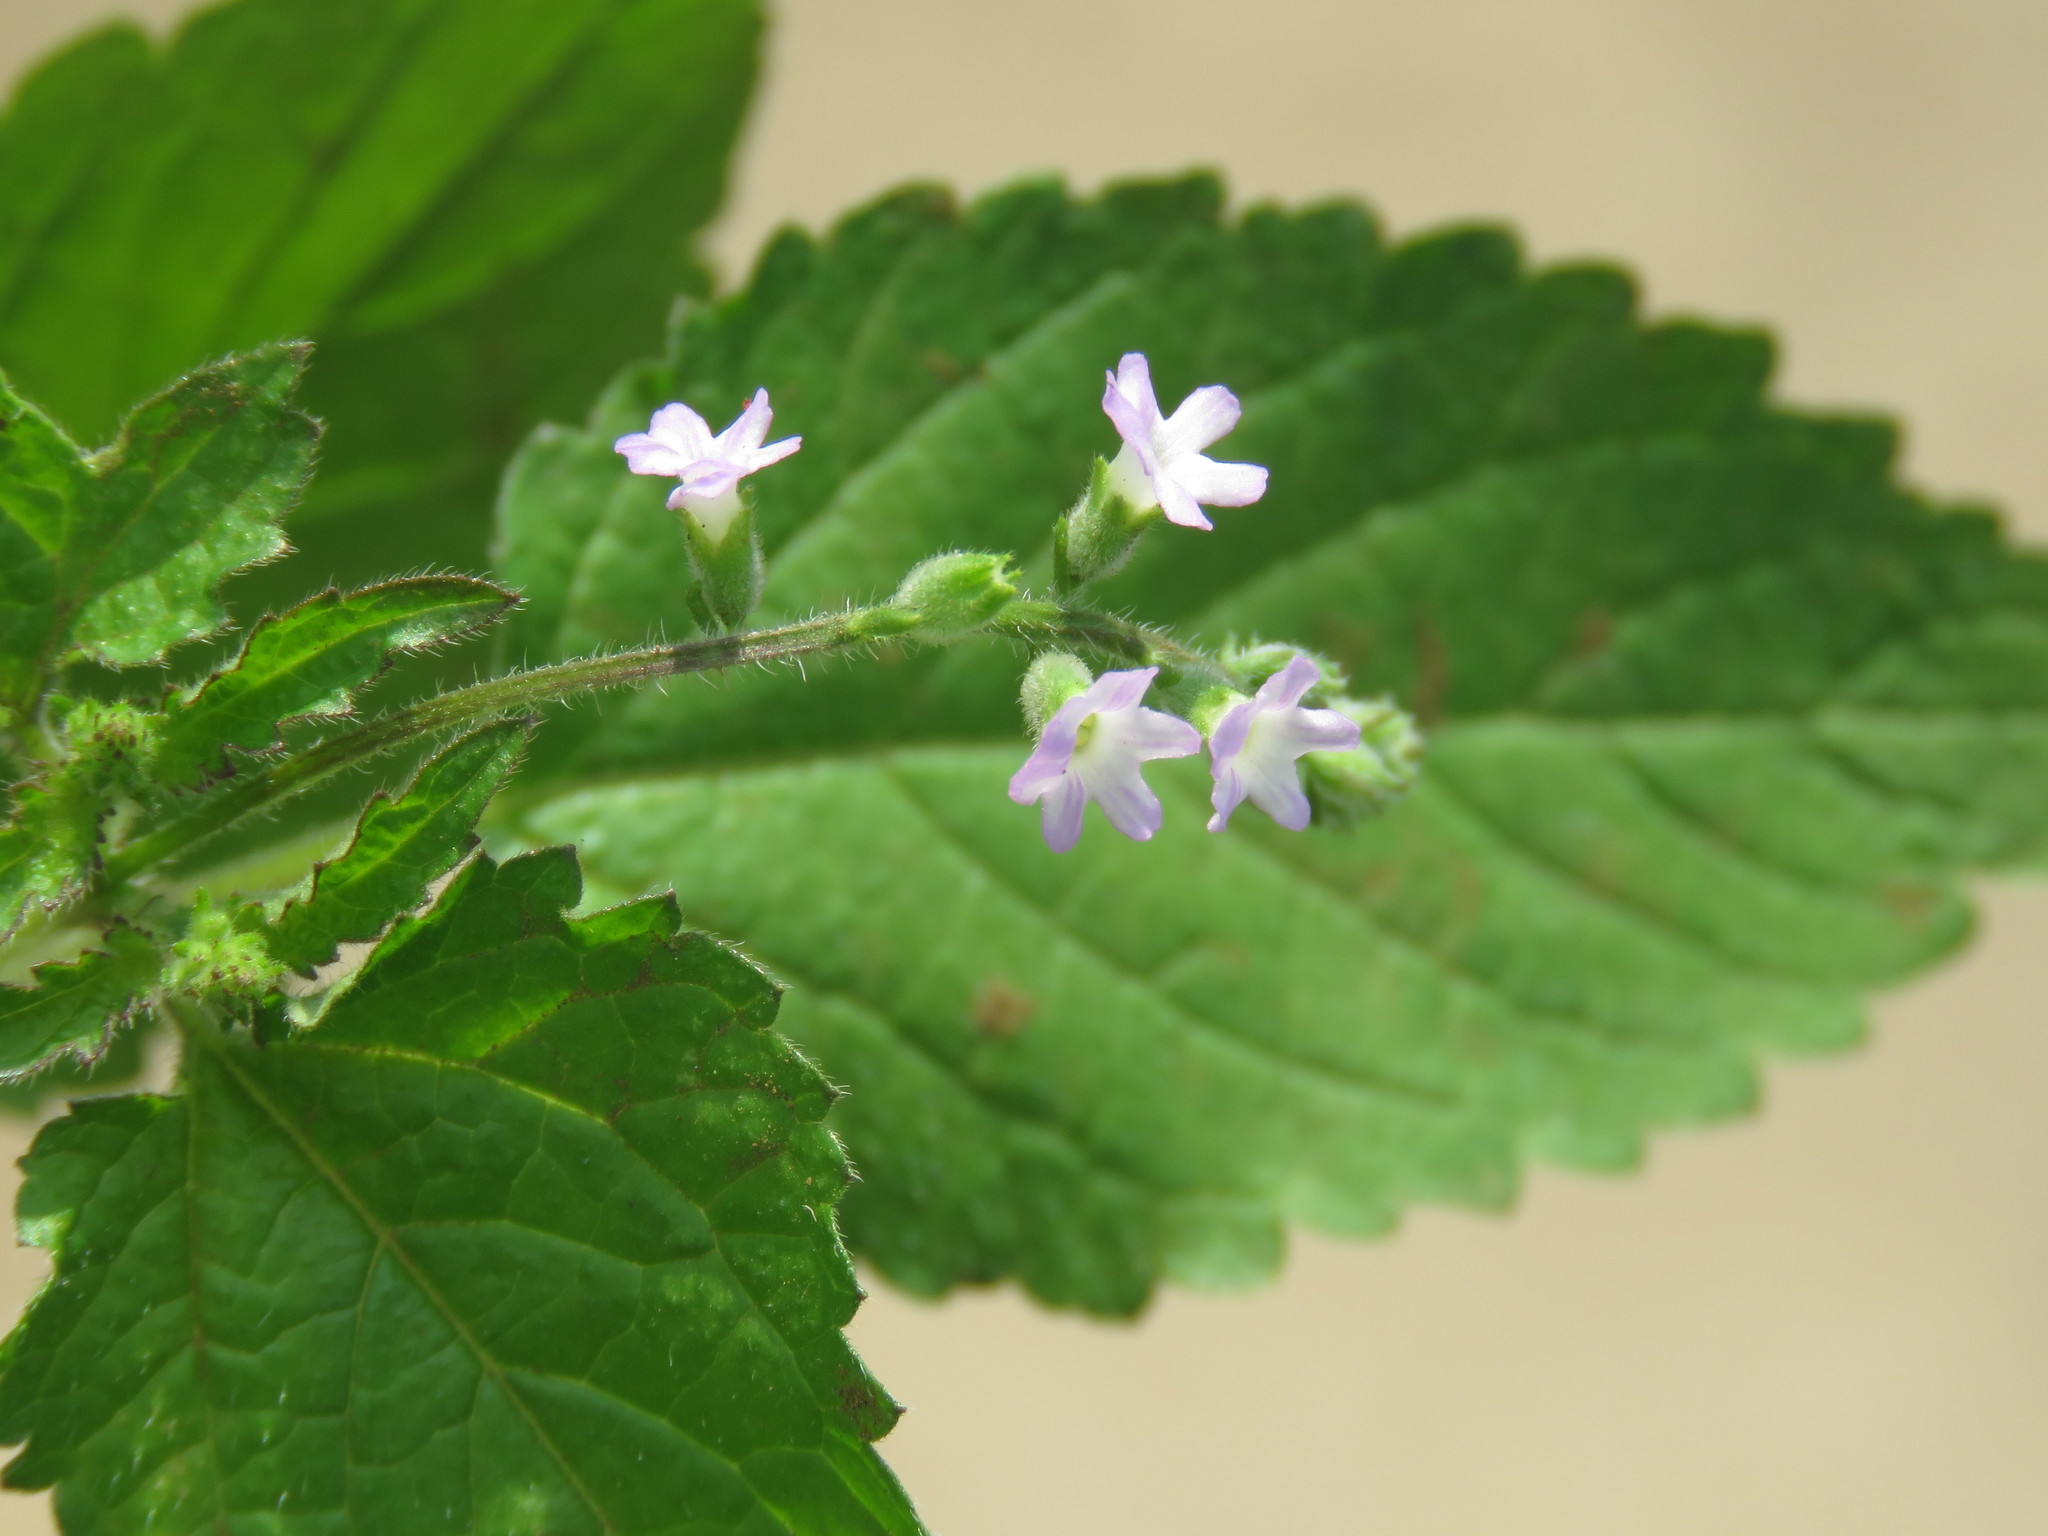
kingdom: Plantae
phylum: Tracheophyta
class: Magnoliopsida
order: Lamiales
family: Verbenaceae
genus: Priva
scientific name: Priva lappulacea
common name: Fasten-'pon-coat
